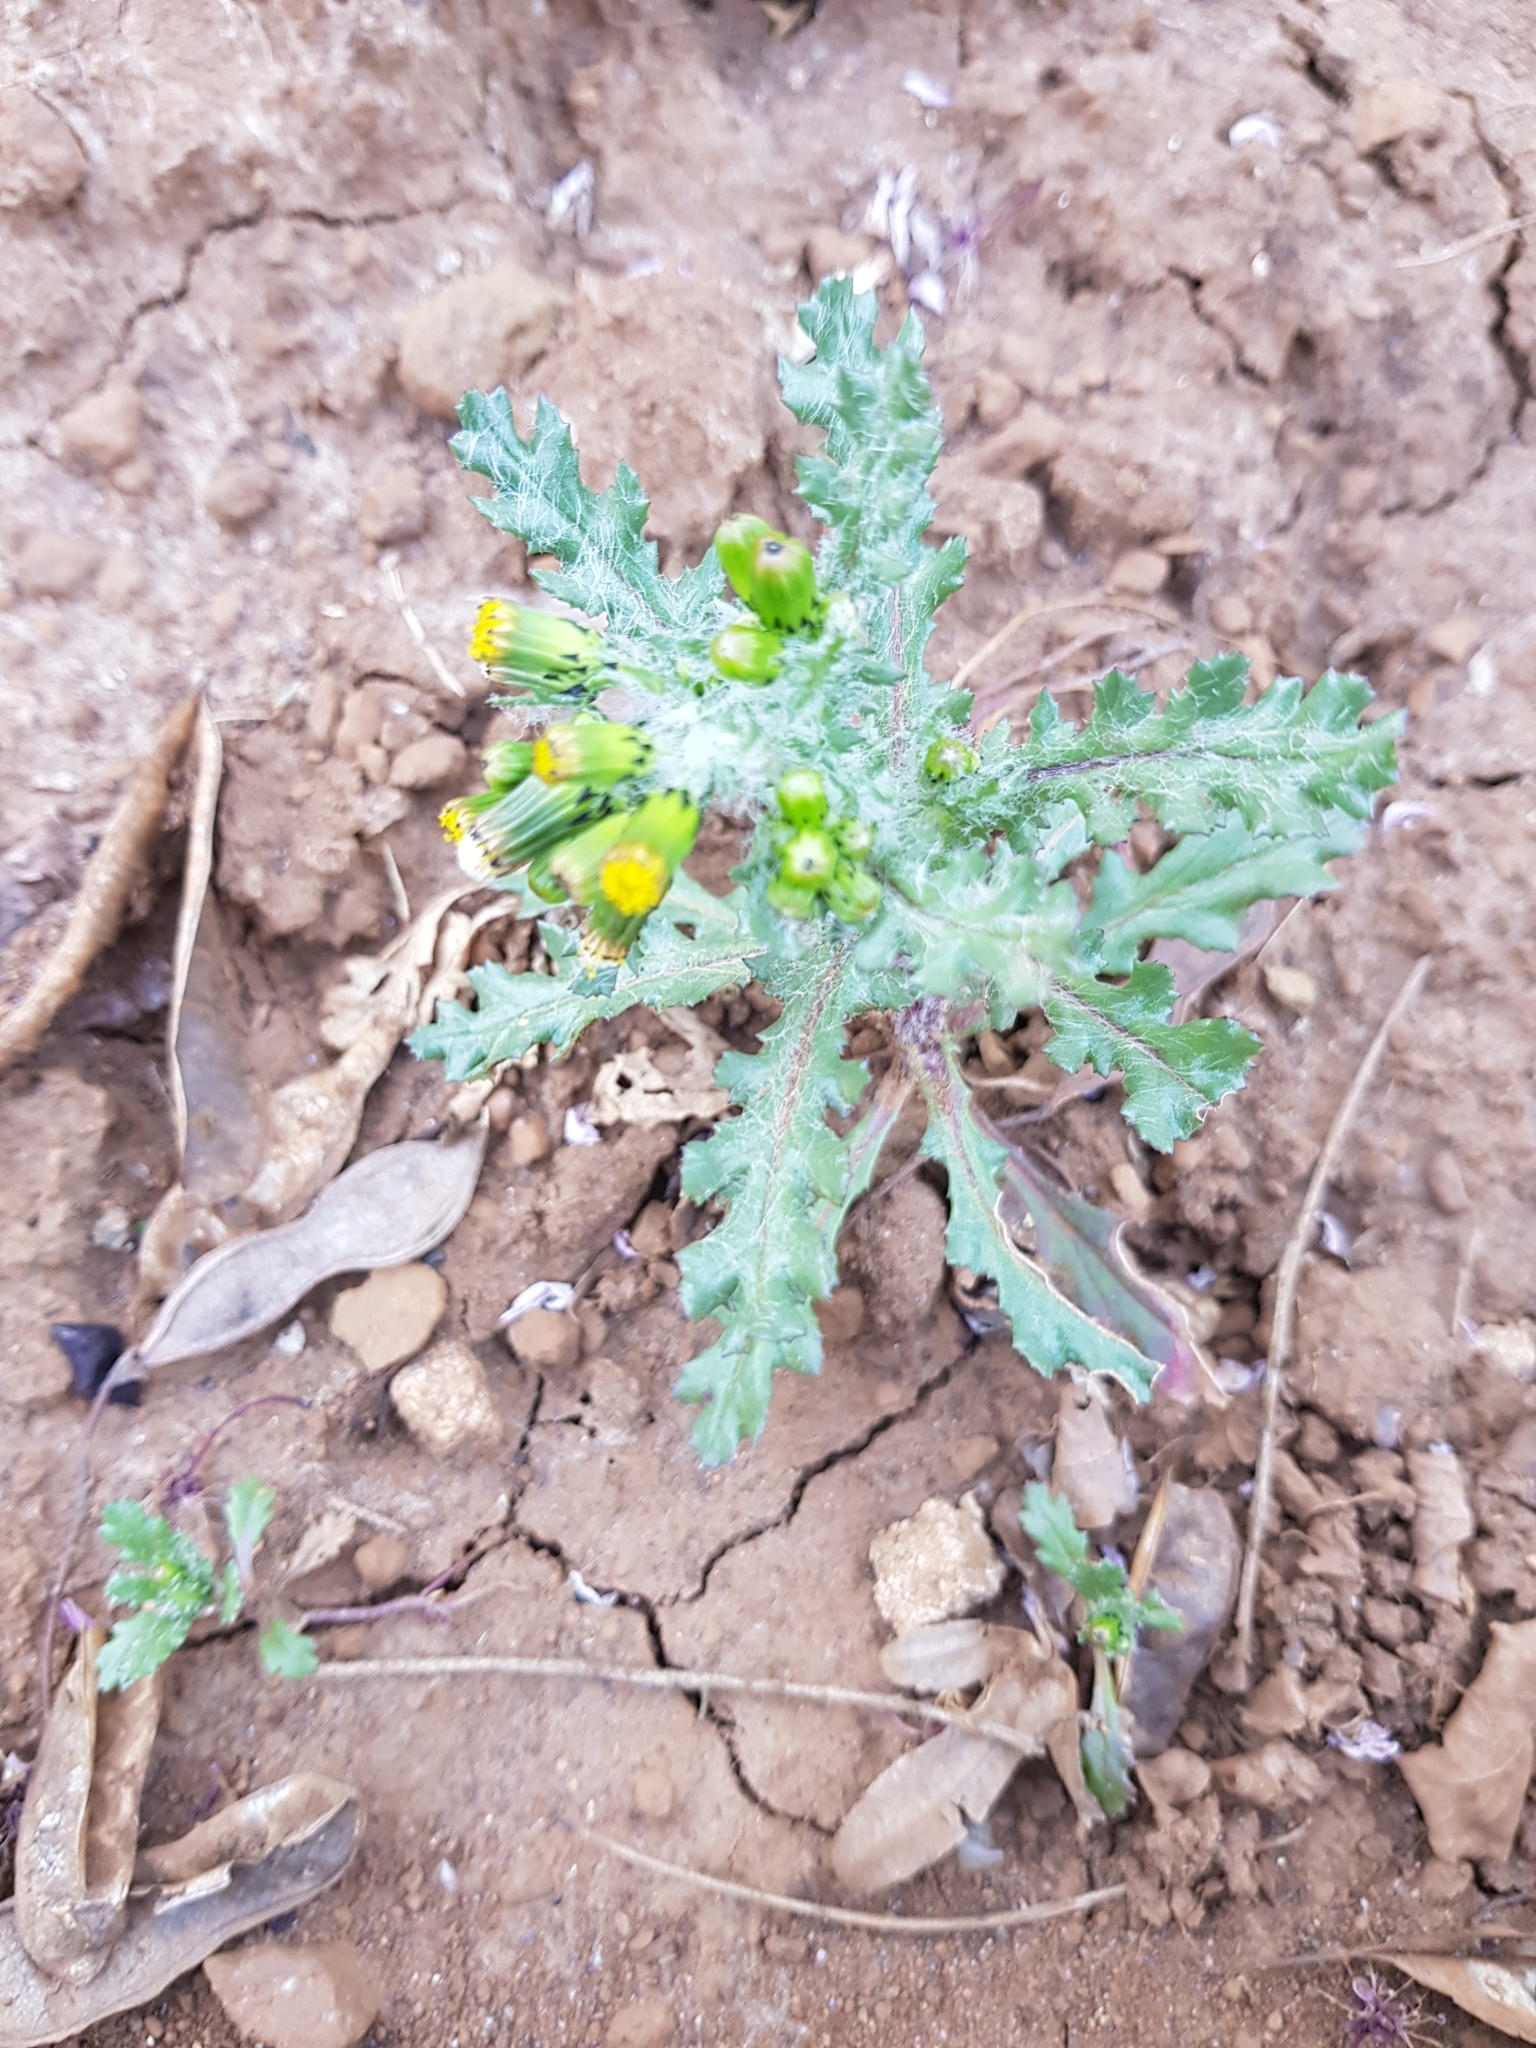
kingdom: Plantae
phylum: Tracheophyta
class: Magnoliopsida
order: Asterales
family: Asteraceae
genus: Senecio
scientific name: Senecio vulgaris
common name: Old-man-in-the-spring
